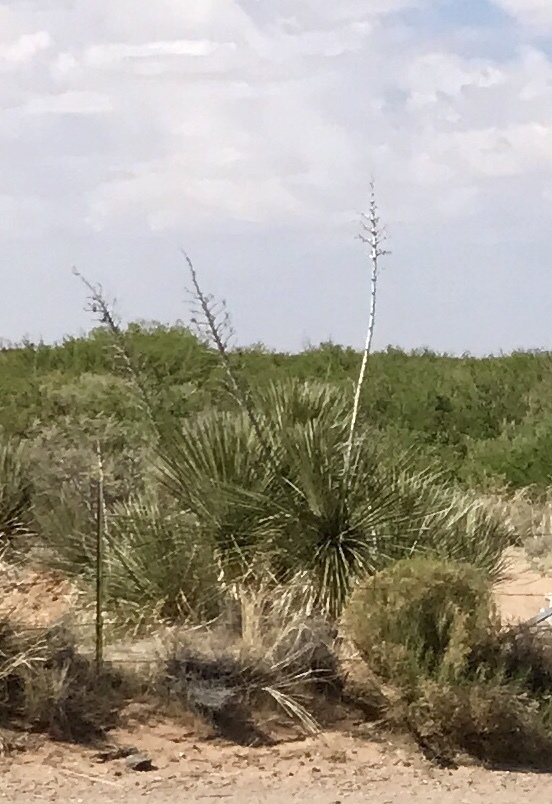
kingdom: Plantae
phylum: Tracheophyta
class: Liliopsida
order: Asparagales
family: Asparagaceae
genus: Yucca
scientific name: Yucca elata
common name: Palmella
